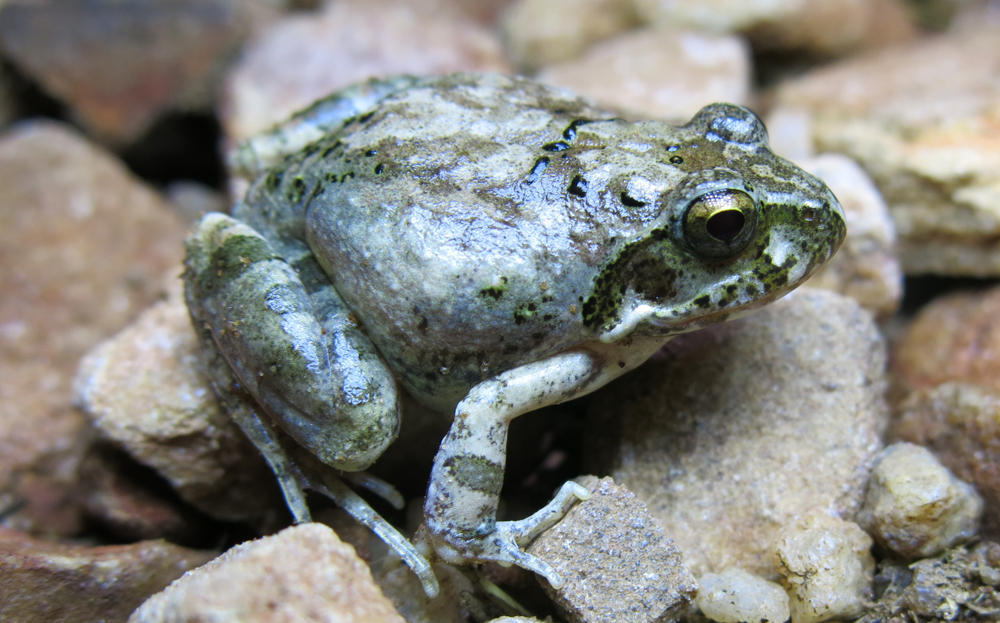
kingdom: Animalia
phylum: Chordata
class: Amphibia
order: Anura
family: Pyxicephalidae
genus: Tomopterna
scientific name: Tomopterna natalensis
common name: Natal sand frog
